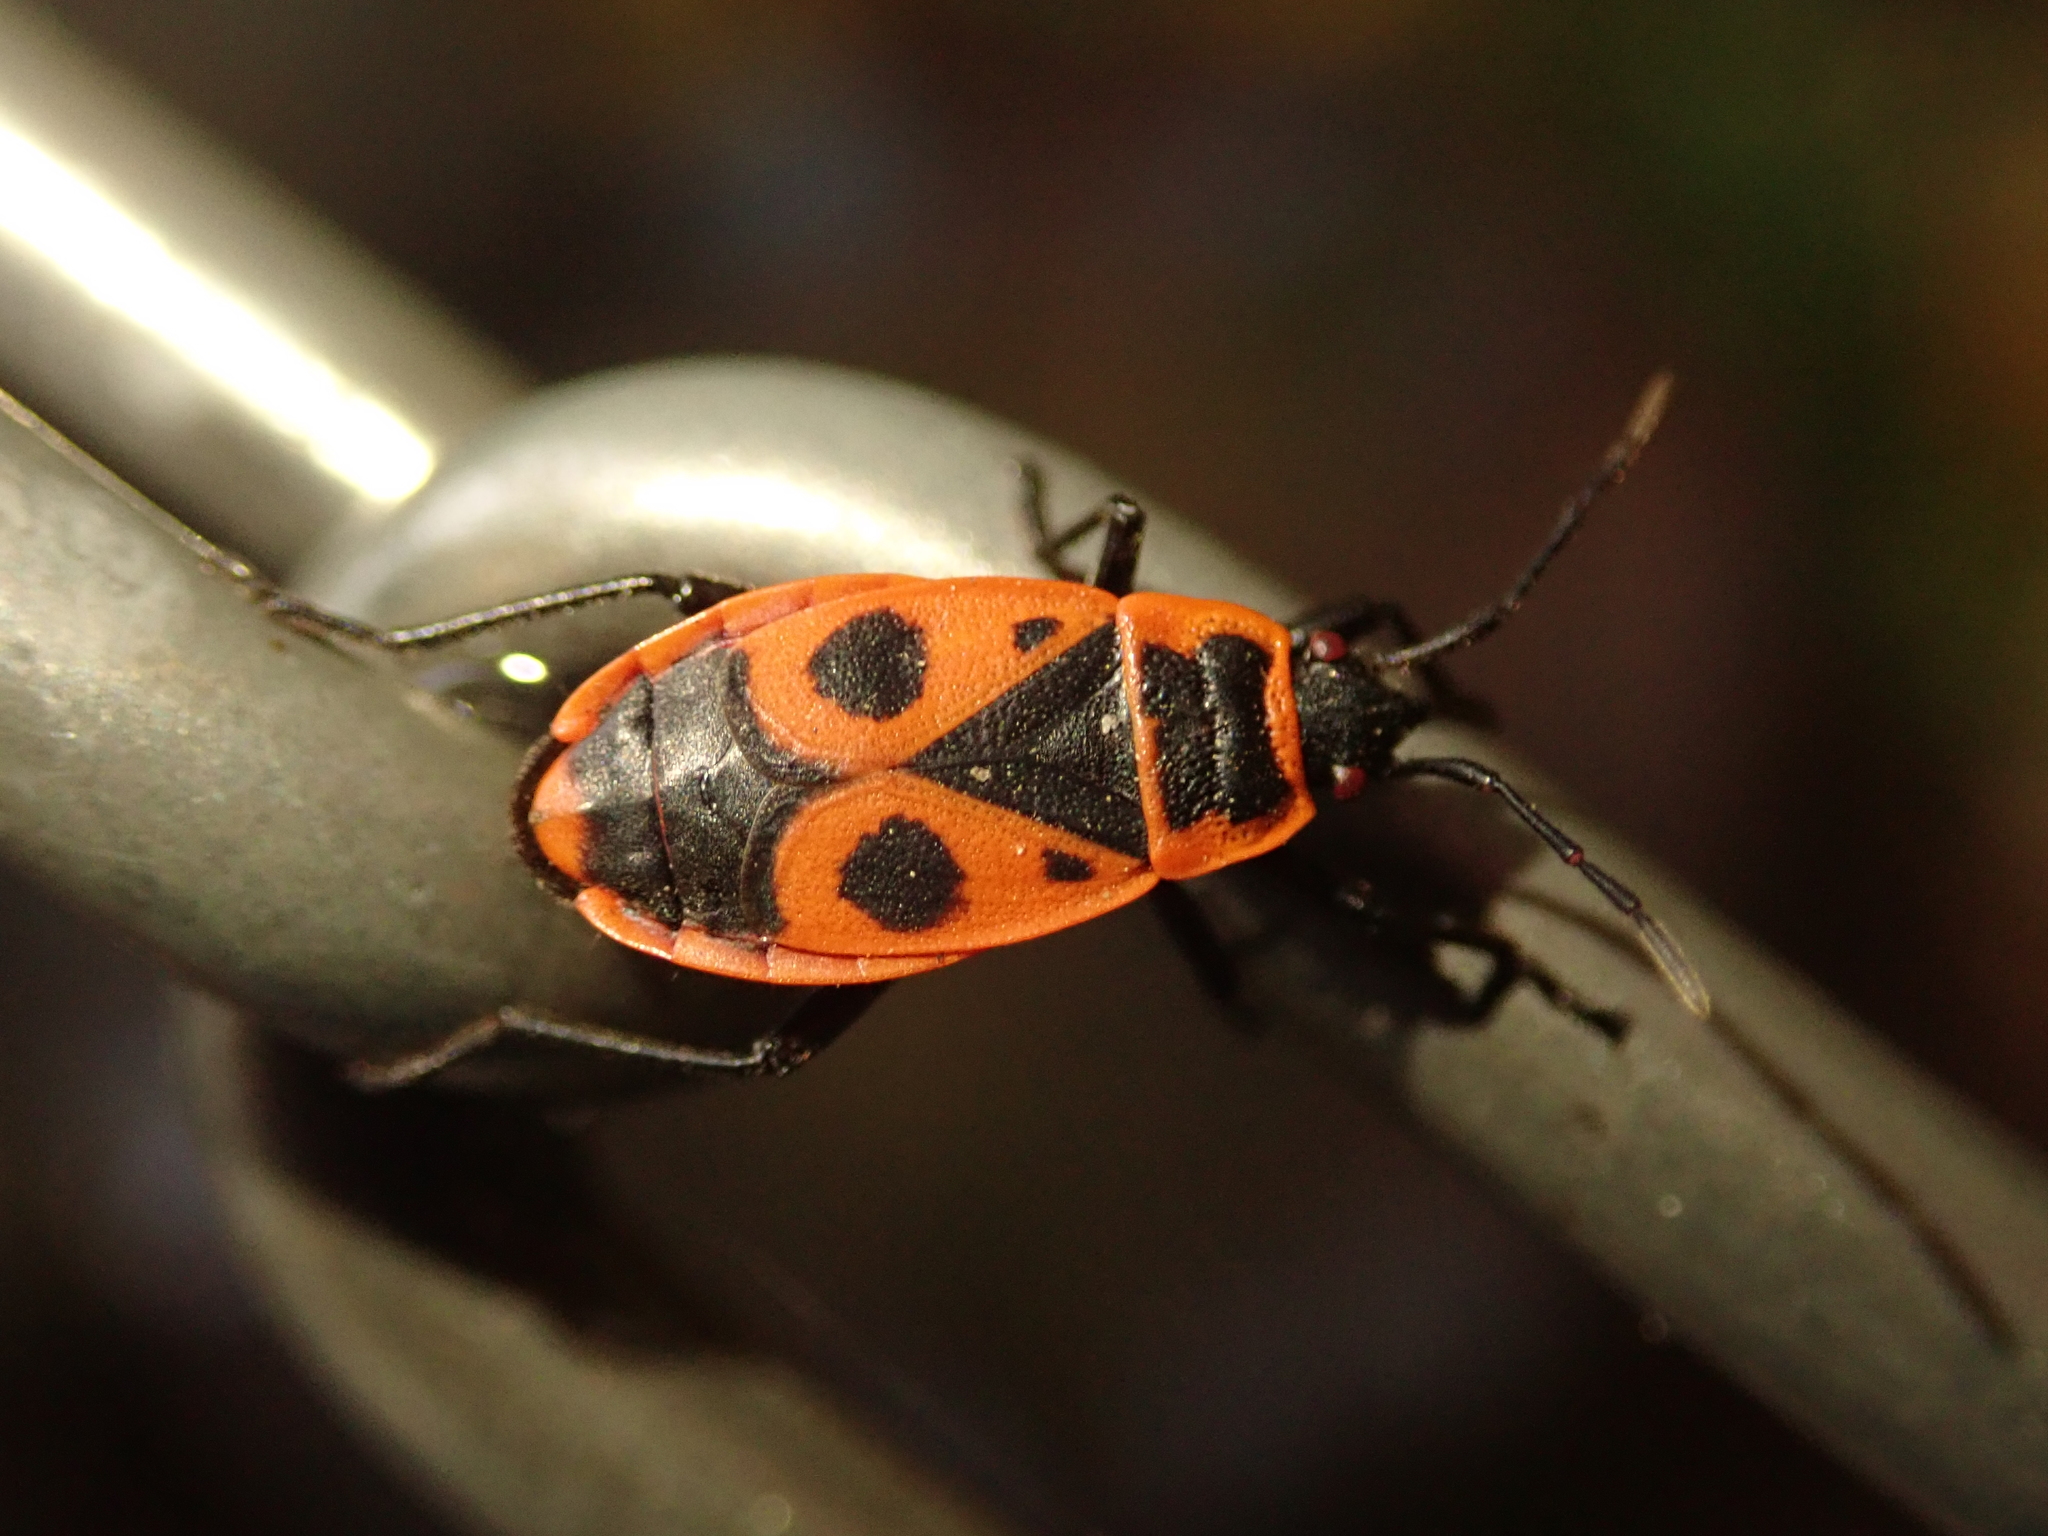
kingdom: Animalia
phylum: Arthropoda
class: Insecta
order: Hemiptera
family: Pyrrhocoridae
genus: Pyrrhocoris
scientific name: Pyrrhocoris apterus
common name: Firebug
